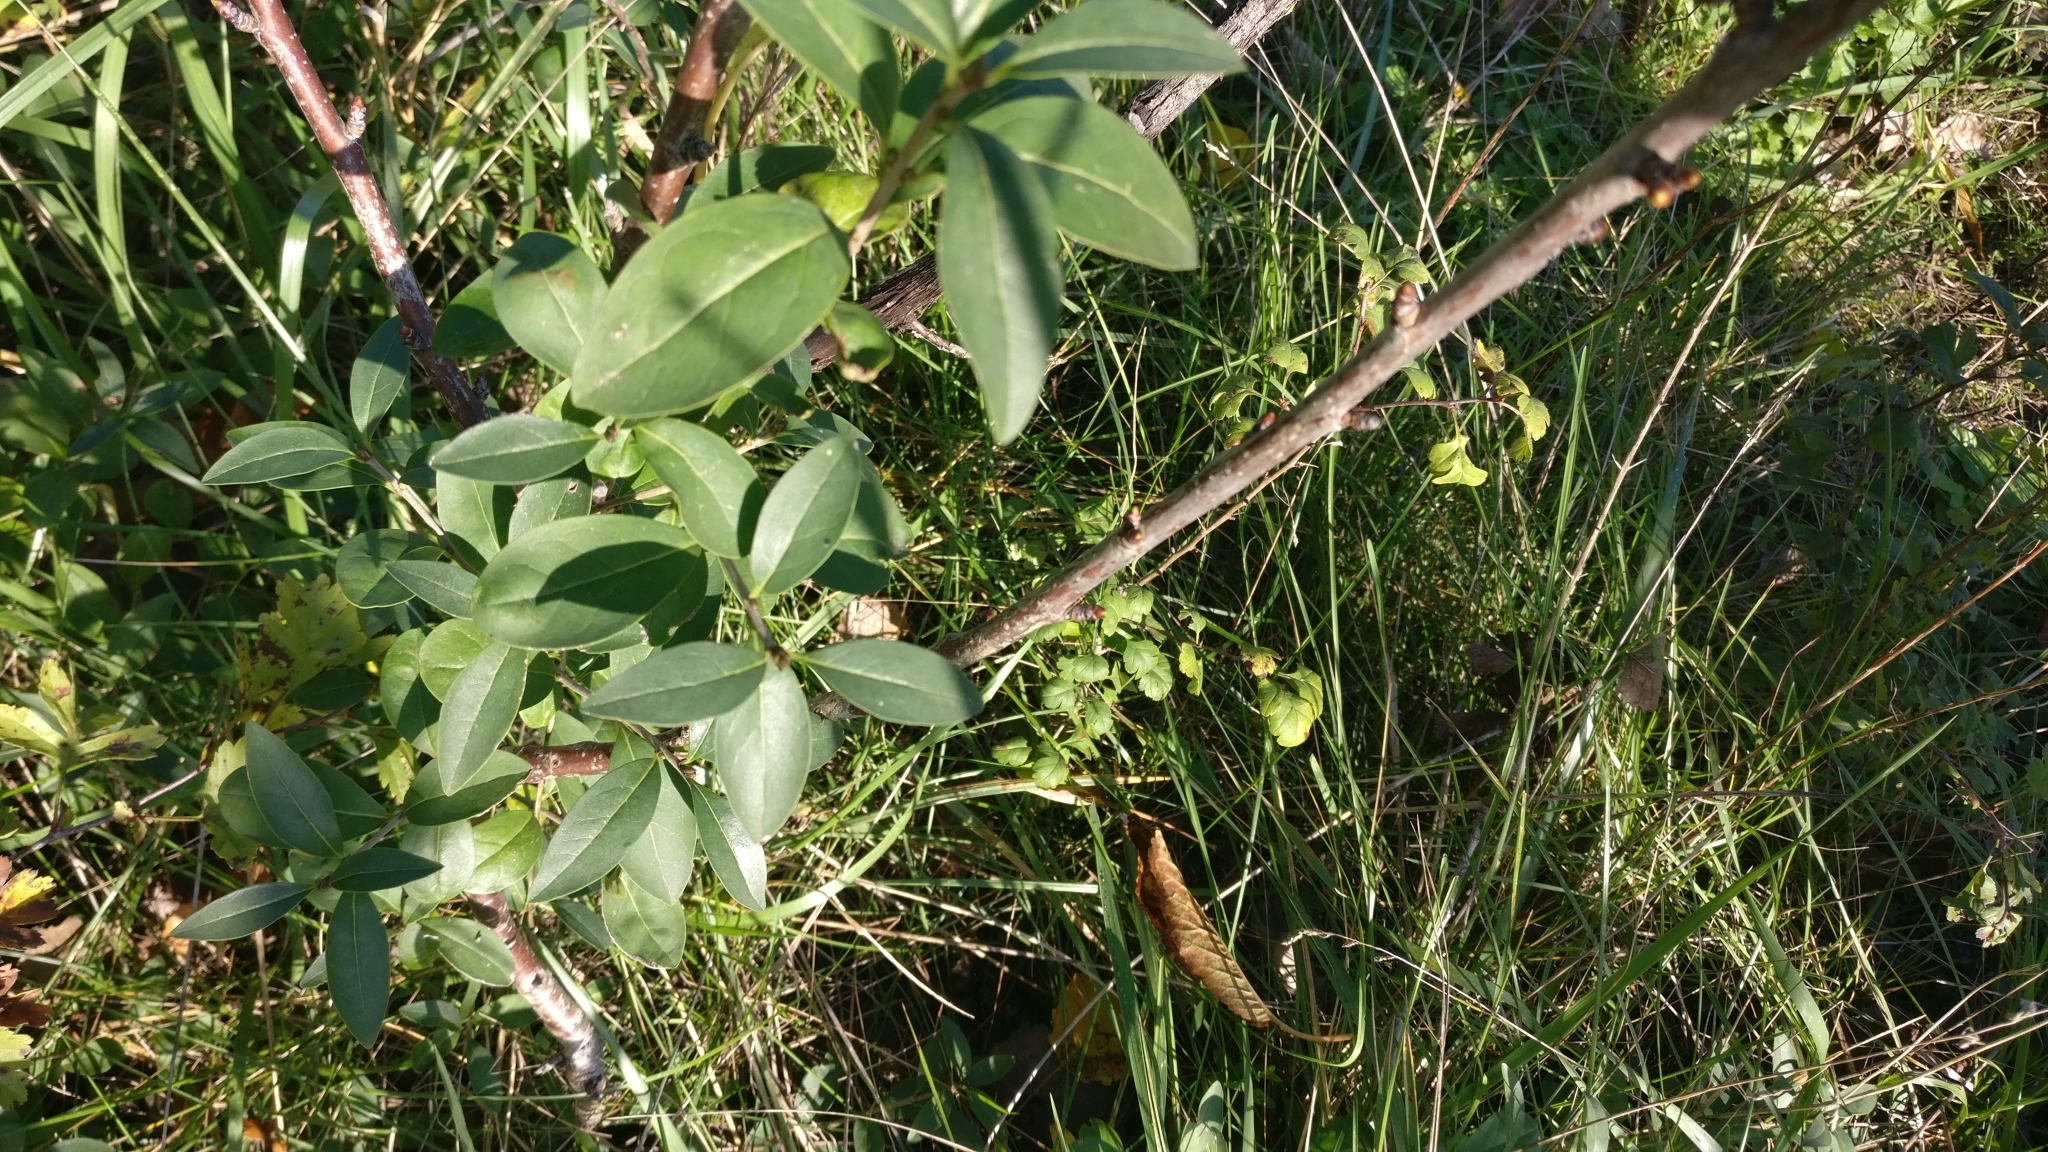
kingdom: Plantae
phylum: Tracheophyta
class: Magnoliopsida
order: Lamiales
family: Oleaceae
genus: Ligustrum
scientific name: Ligustrum vulgare
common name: Wild privet
